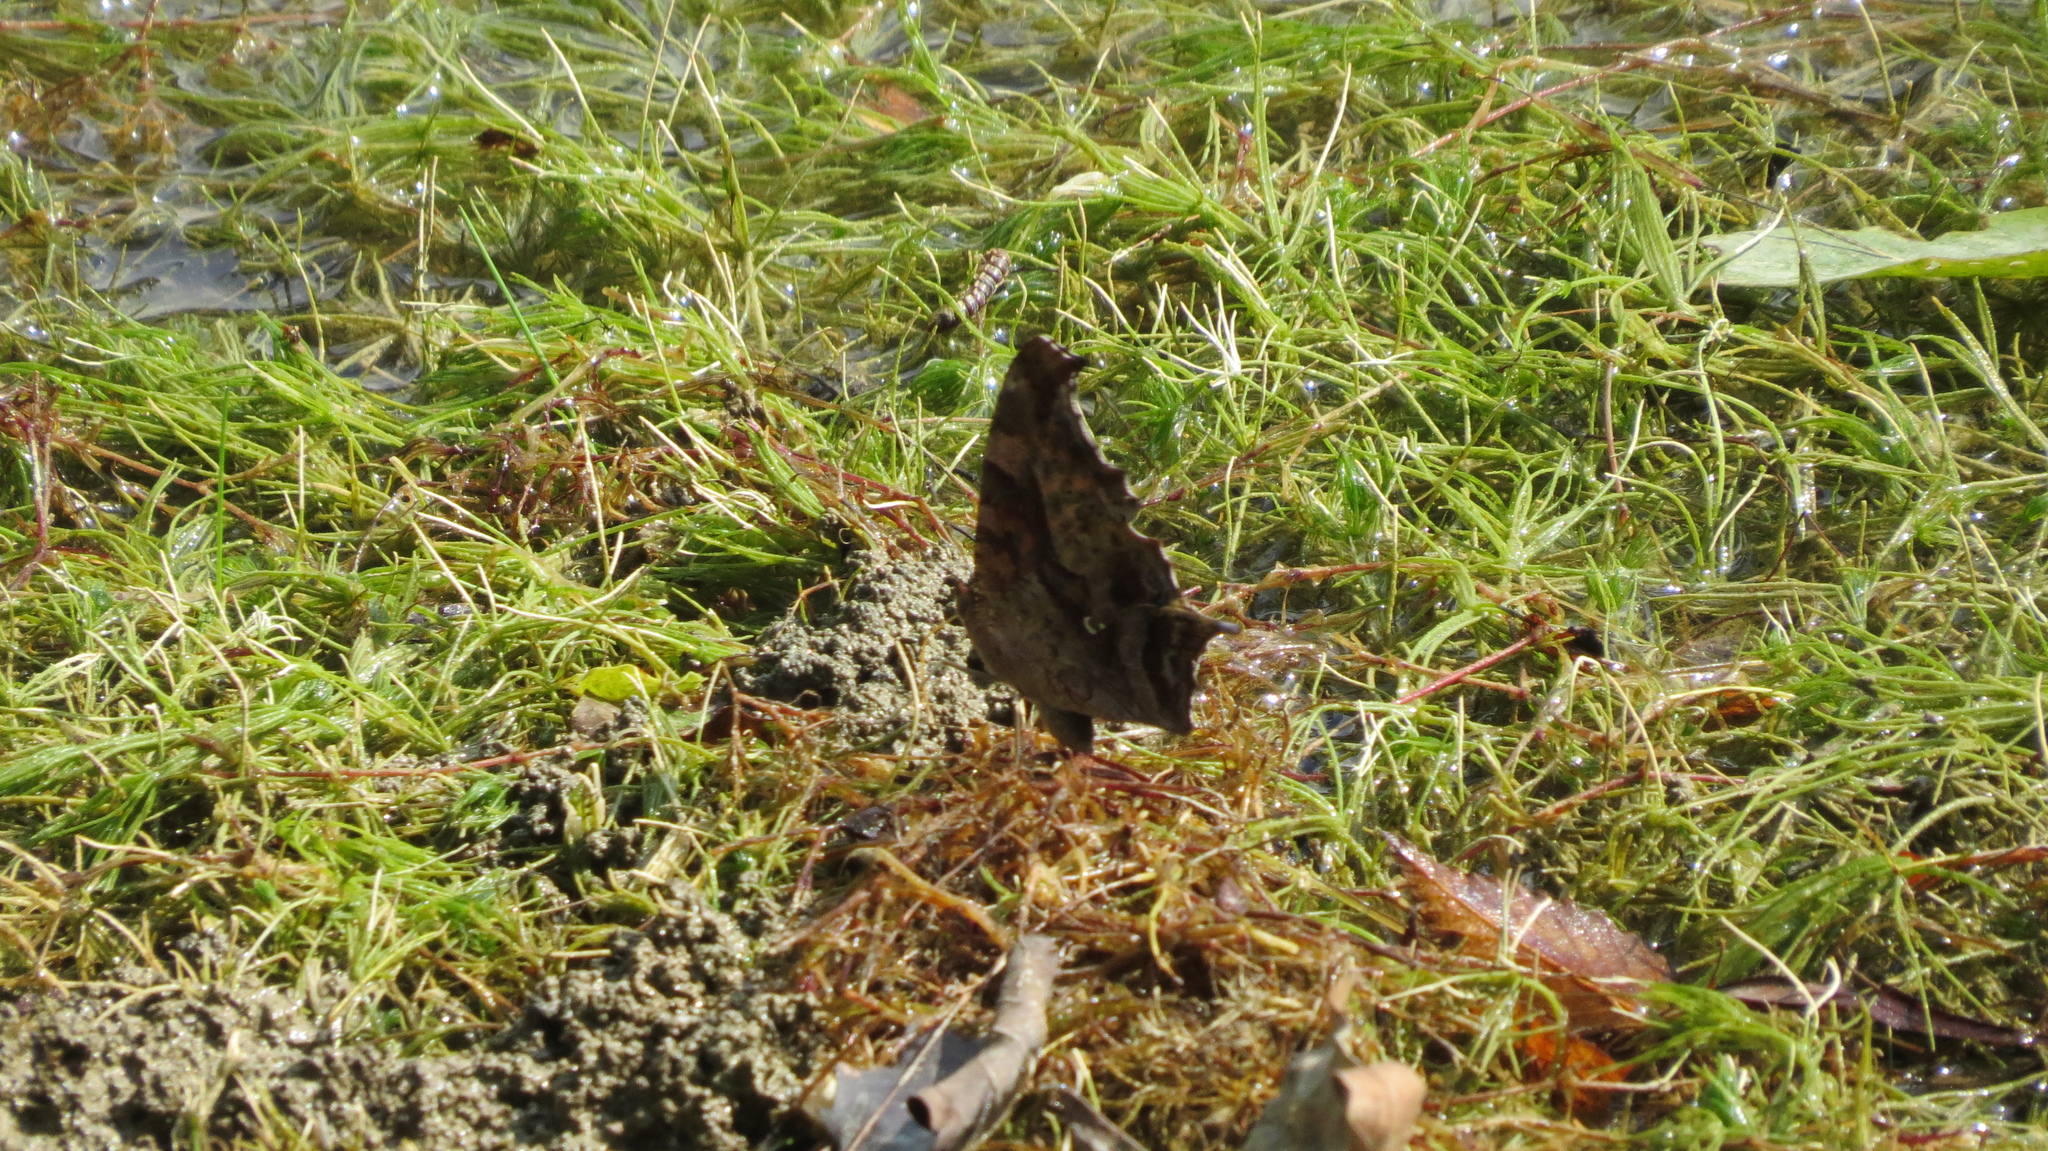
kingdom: Animalia
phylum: Arthropoda
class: Insecta
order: Lepidoptera
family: Nymphalidae
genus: Polygonia
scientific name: Polygonia interrogationis
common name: Question mark
